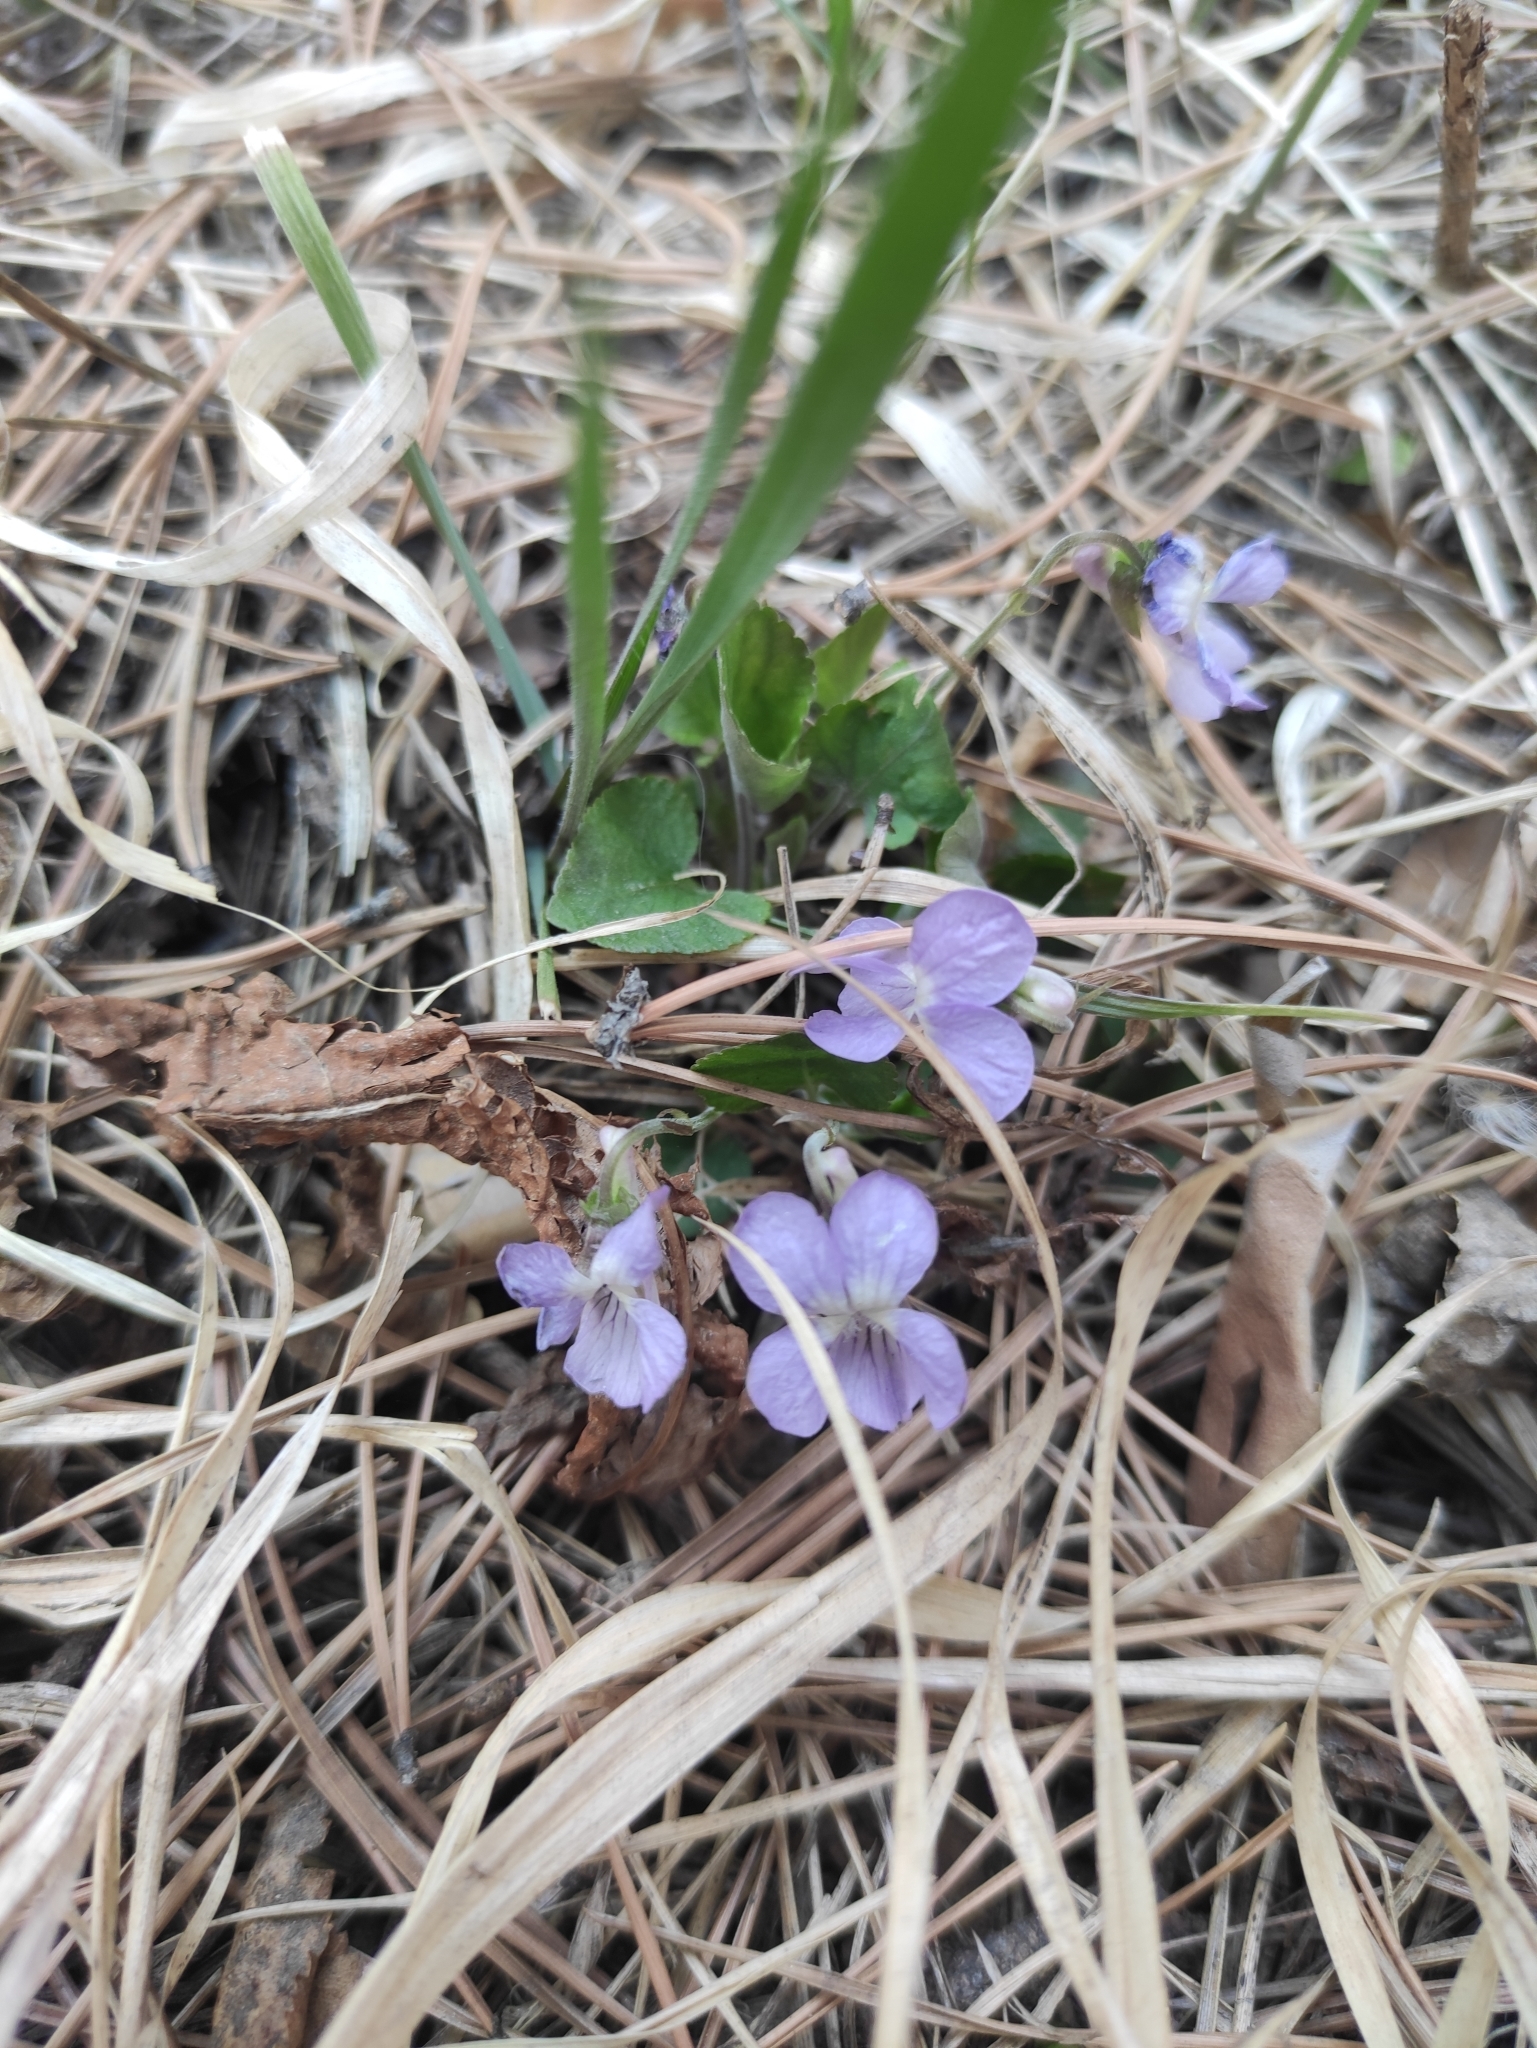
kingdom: Plantae
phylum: Tracheophyta
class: Magnoliopsida
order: Malpighiales
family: Violaceae
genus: Viola
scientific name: Viola rupestris
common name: Teesdale violet
